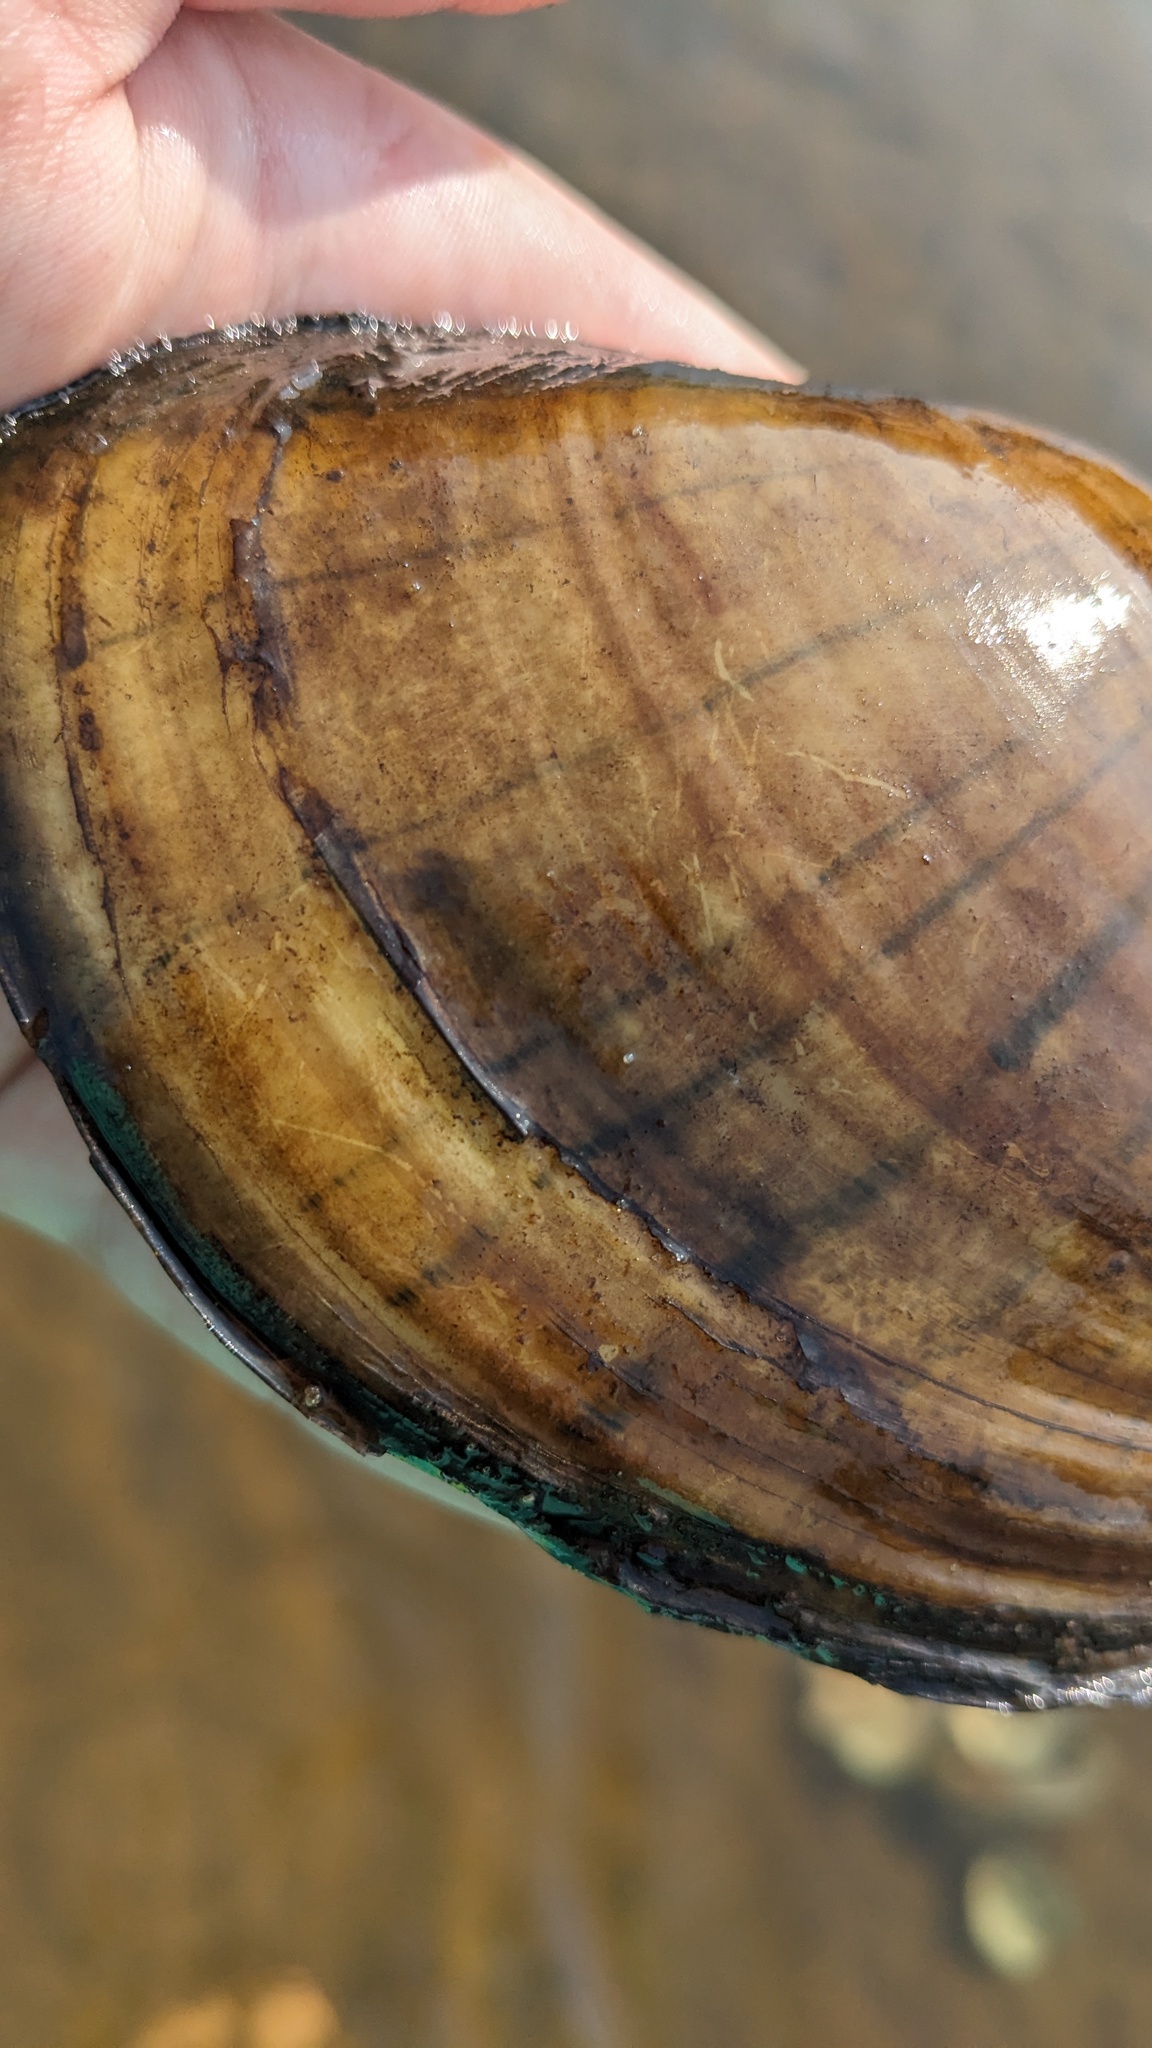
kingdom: Animalia
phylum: Mollusca
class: Bivalvia
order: Unionida
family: Unionidae
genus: Lampsilis
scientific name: Lampsilis cardium
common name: Plain pocketbook
